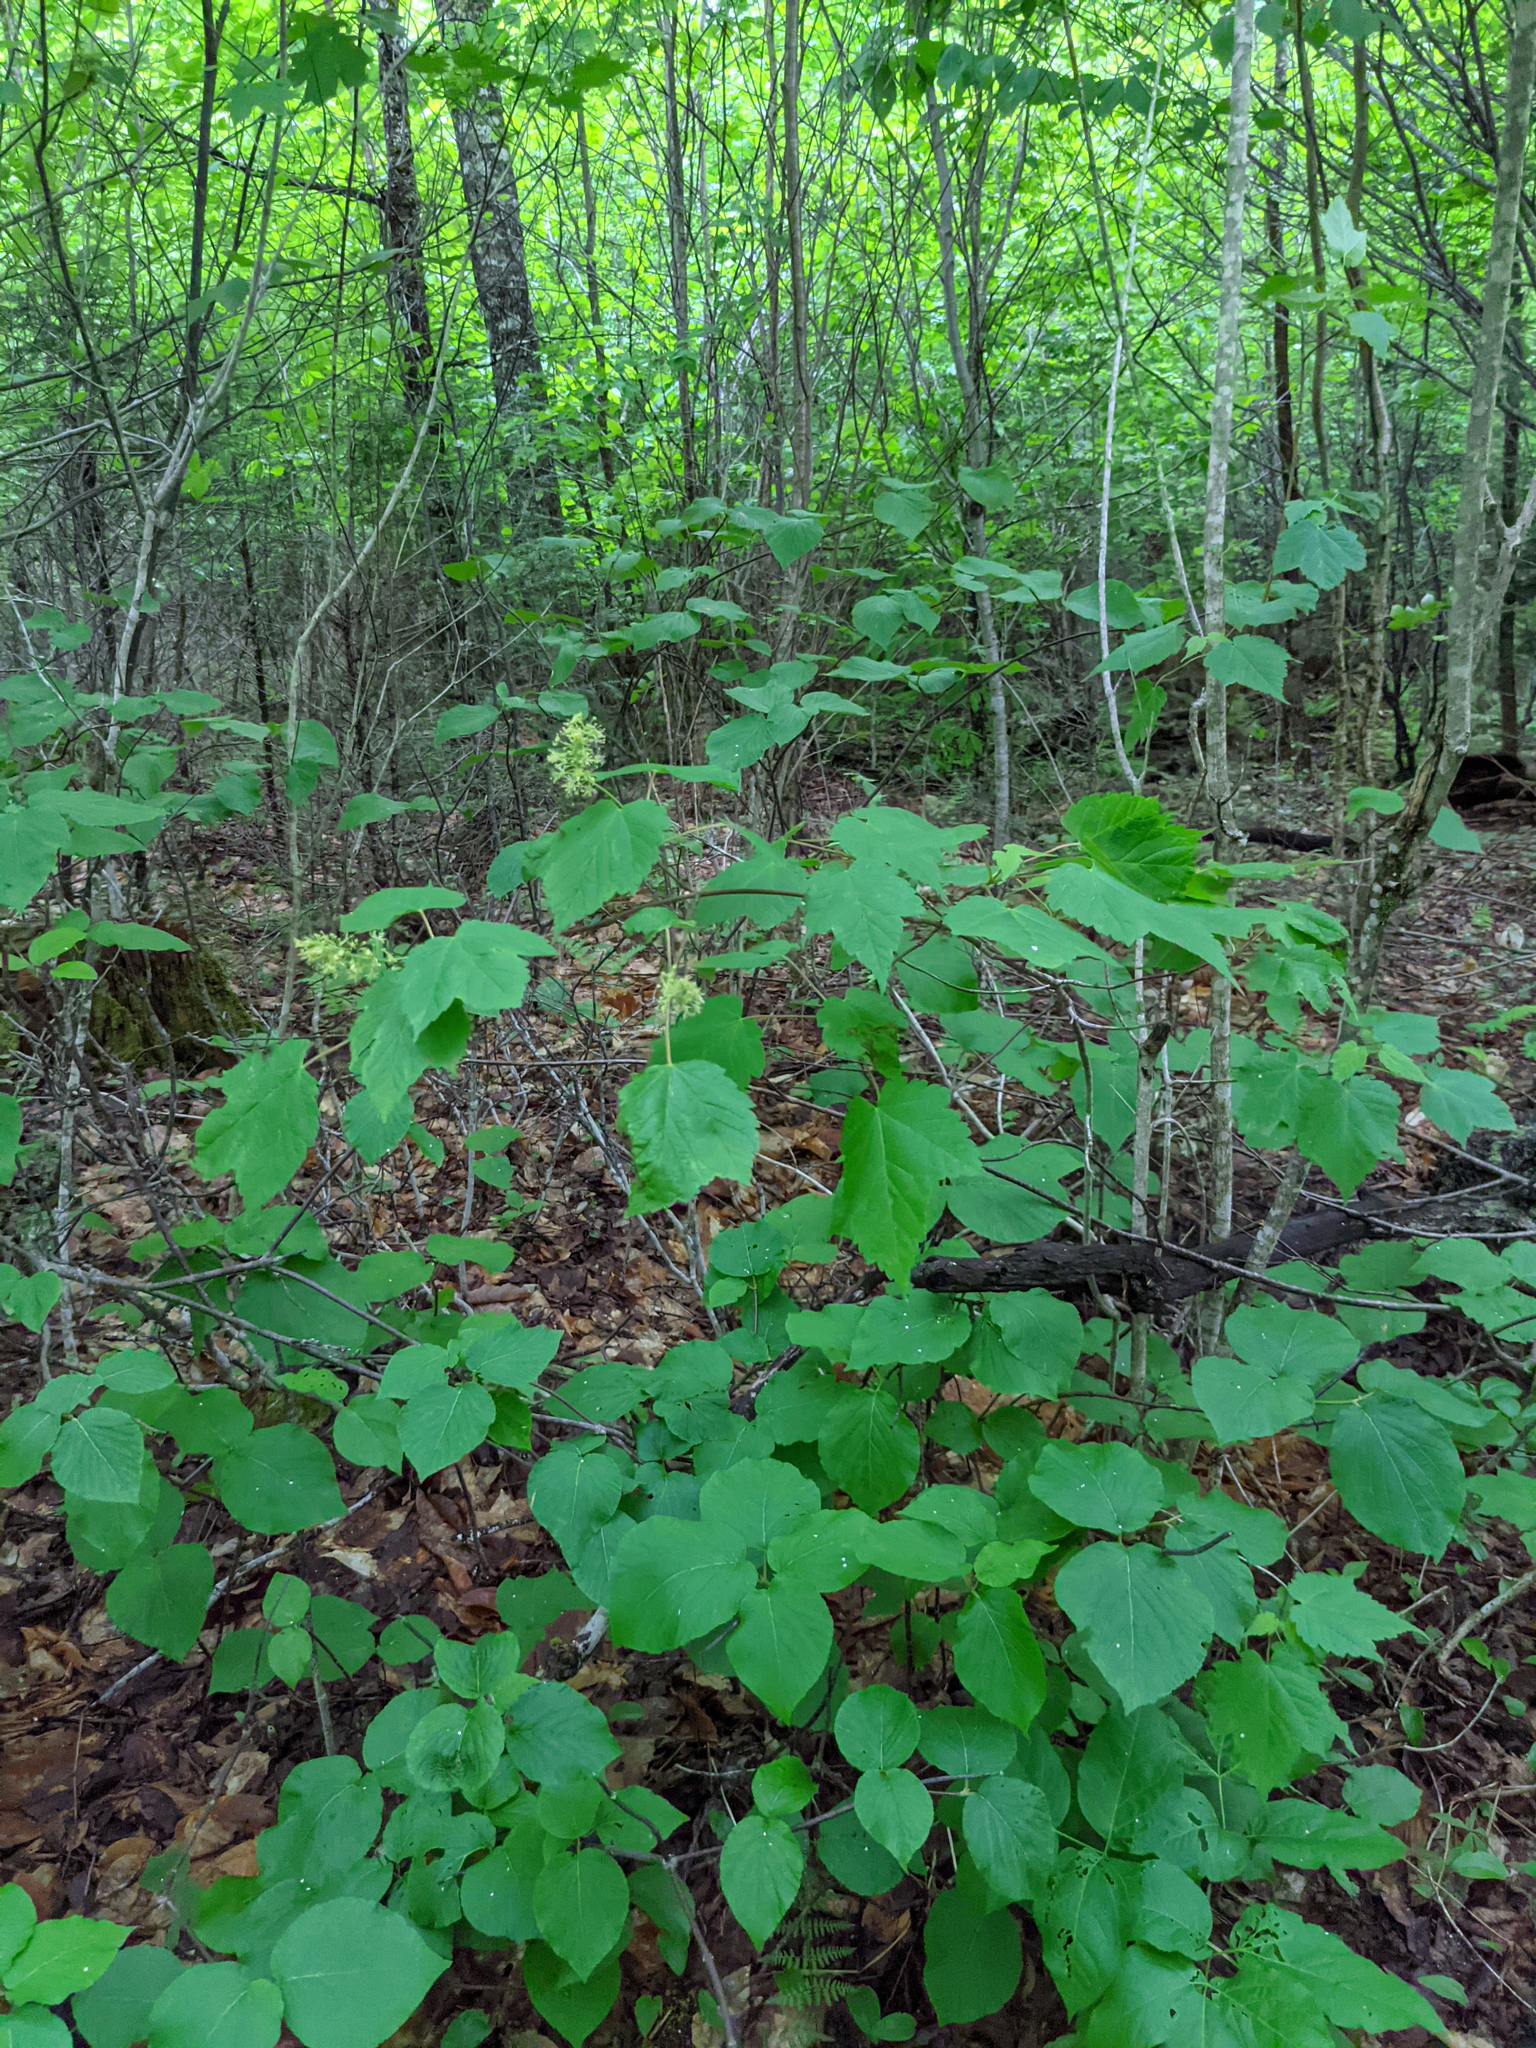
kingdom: Plantae
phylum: Tracheophyta
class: Magnoliopsida
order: Sapindales
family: Sapindaceae
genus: Acer
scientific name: Acer spicatum
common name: Mountain maple
